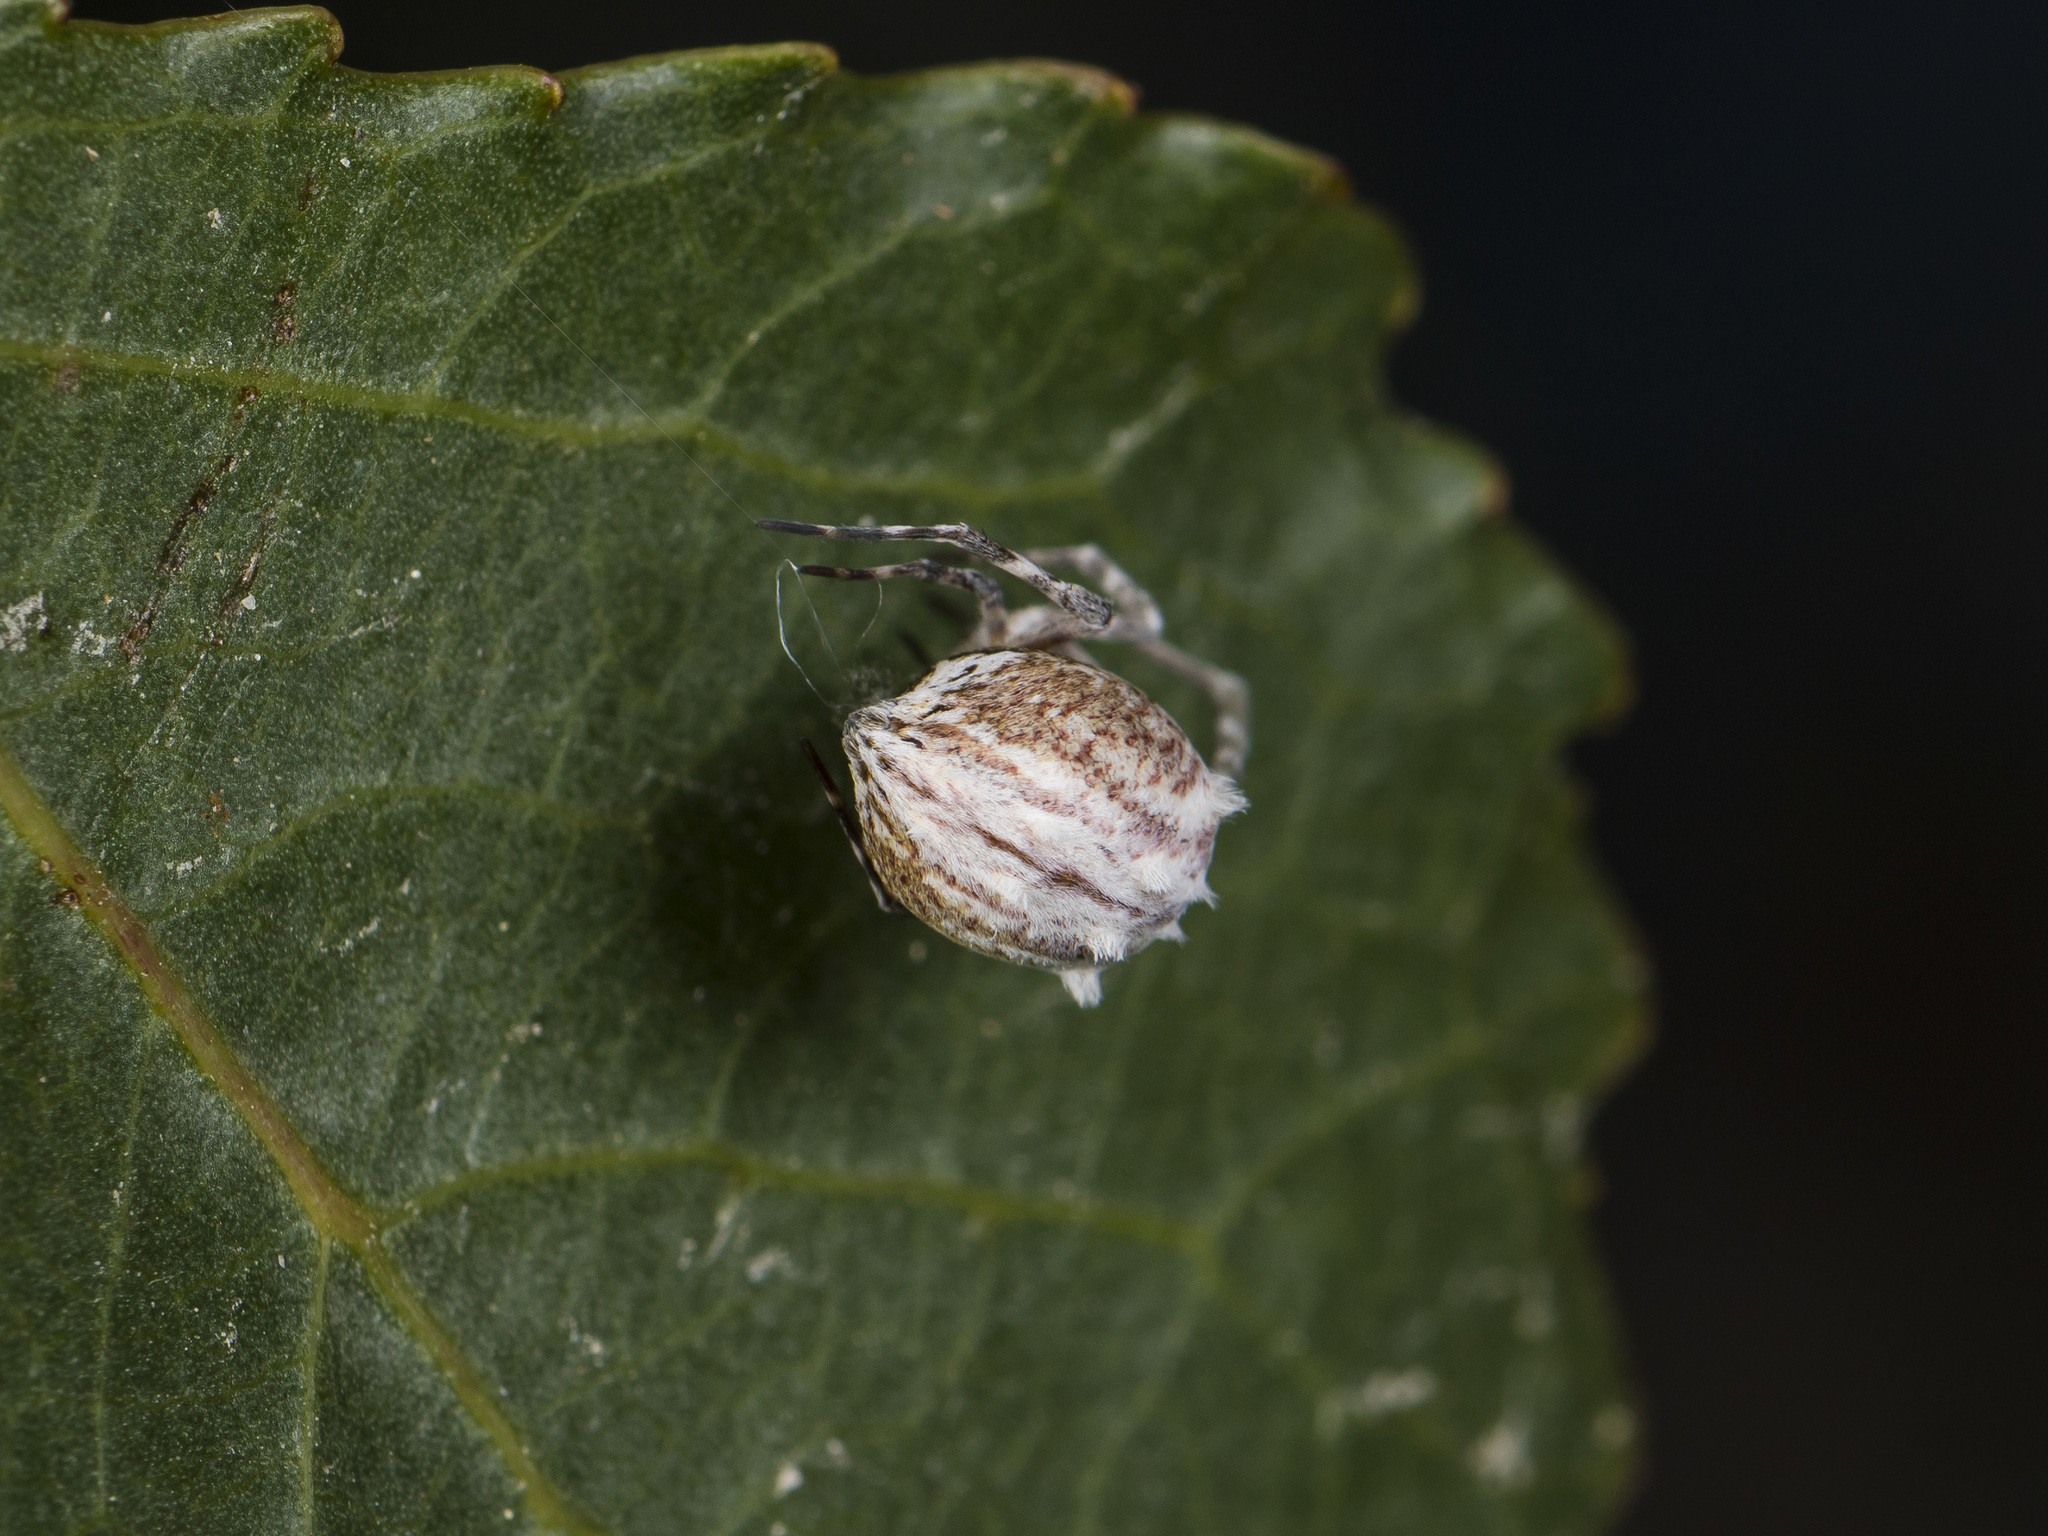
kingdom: Animalia
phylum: Arthropoda
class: Arachnida
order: Araneae
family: Uloboridae
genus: Uloborus
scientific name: Uloborus walckenaerius
